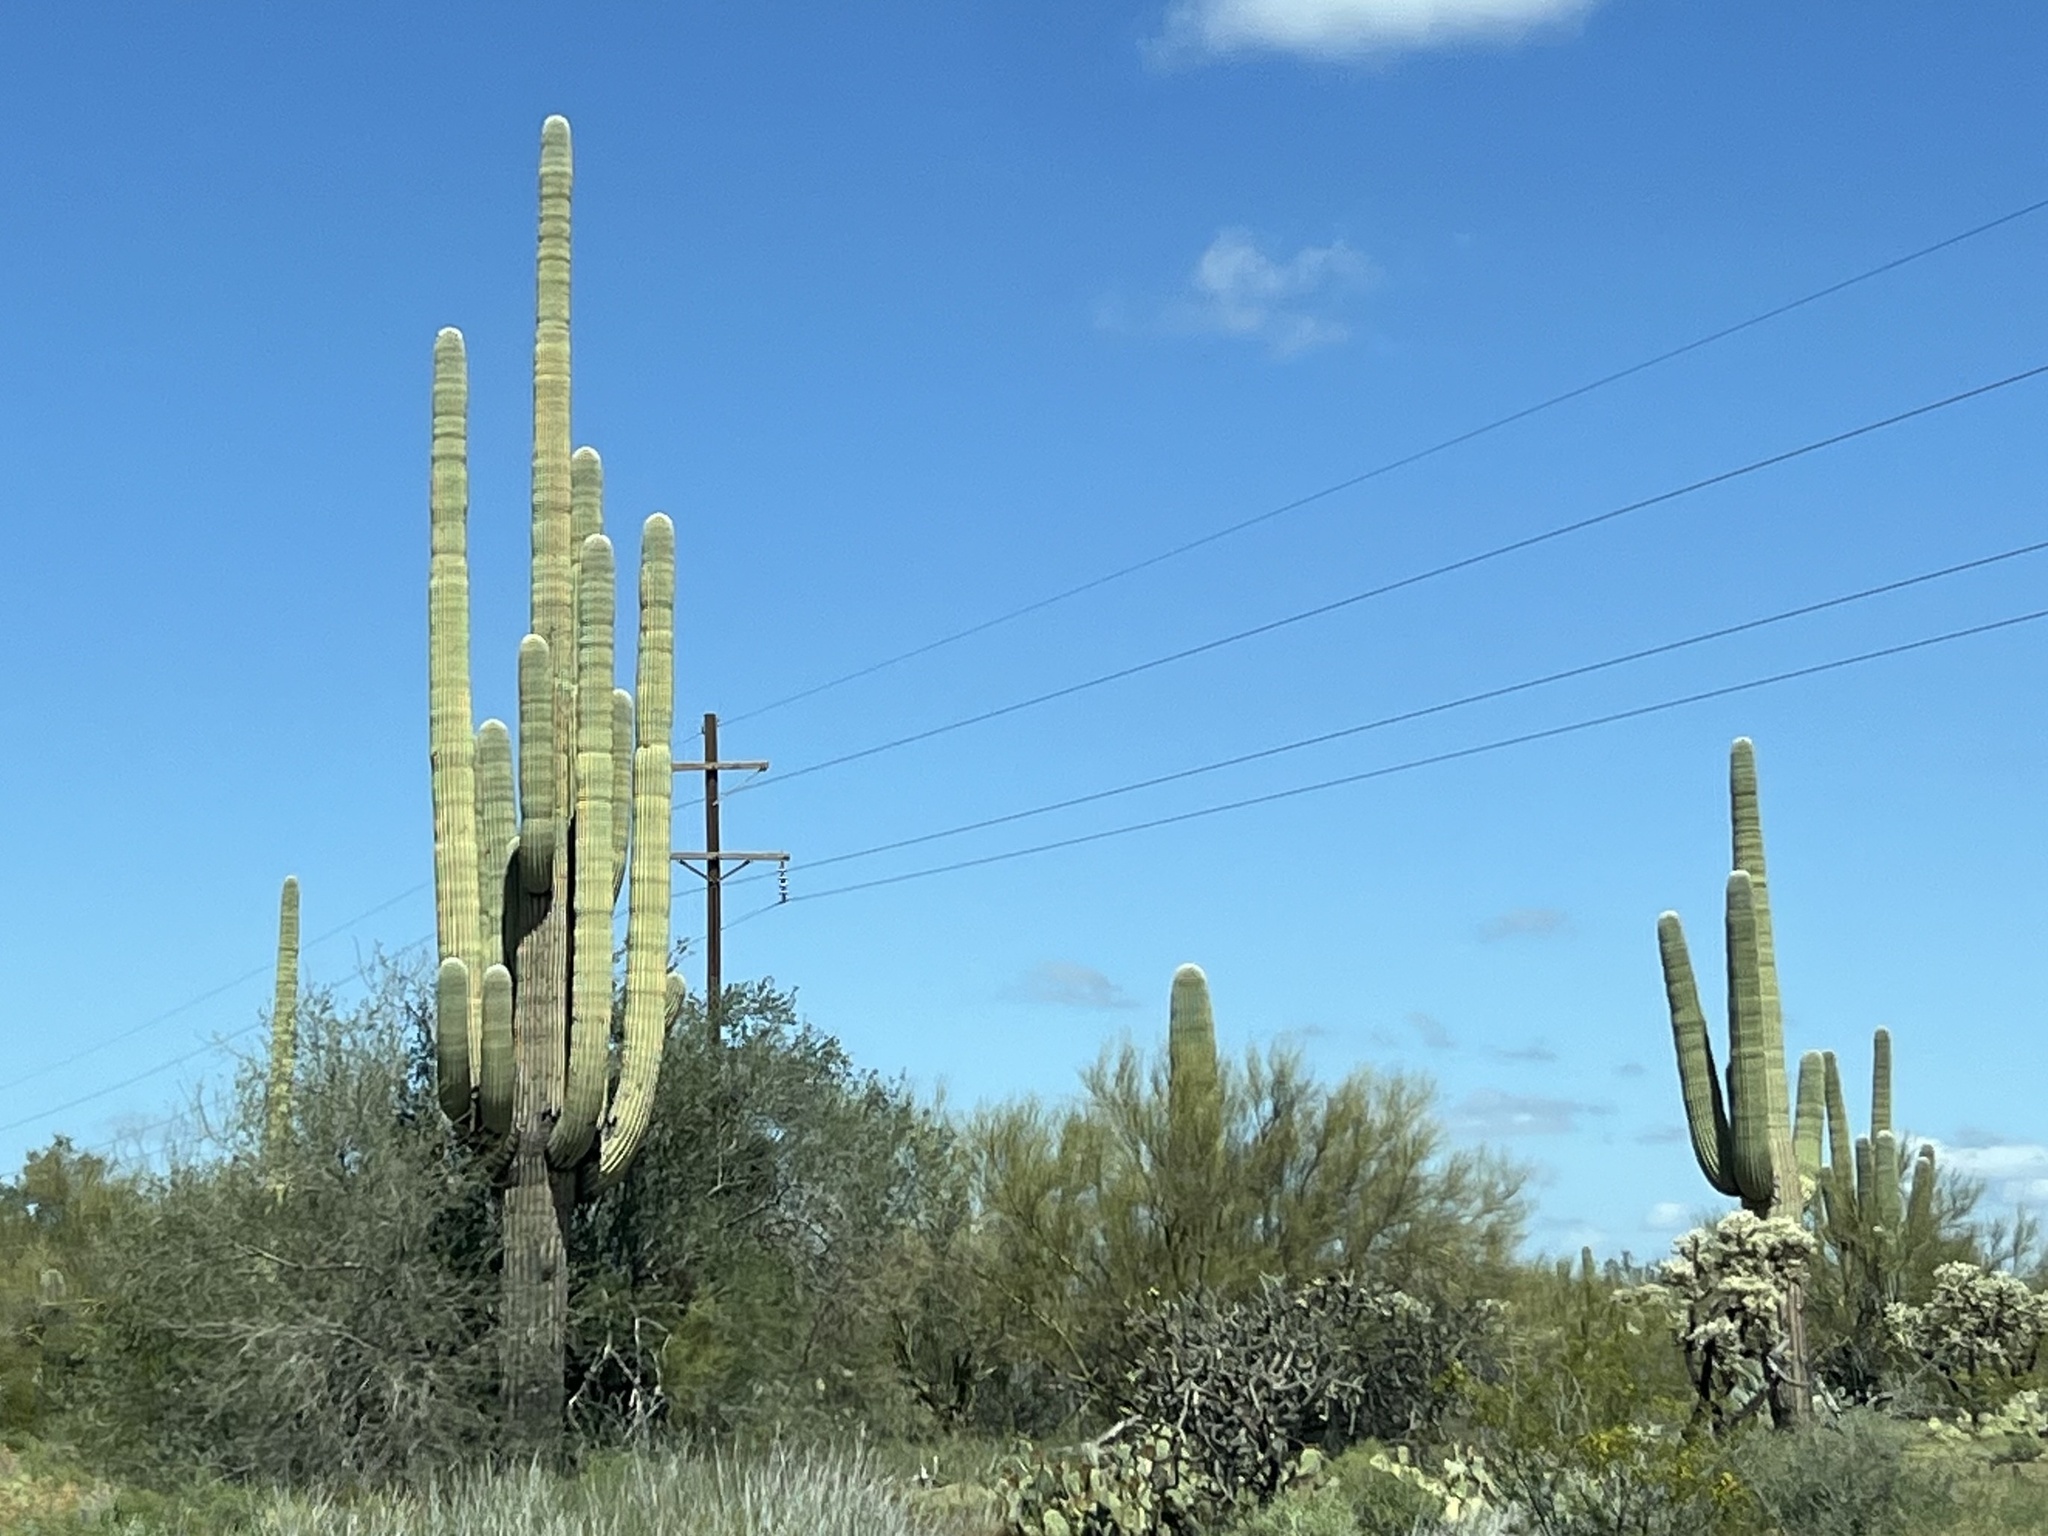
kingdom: Plantae
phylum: Tracheophyta
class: Magnoliopsida
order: Caryophyllales
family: Cactaceae
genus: Carnegiea
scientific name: Carnegiea gigantea
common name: Saguaro
